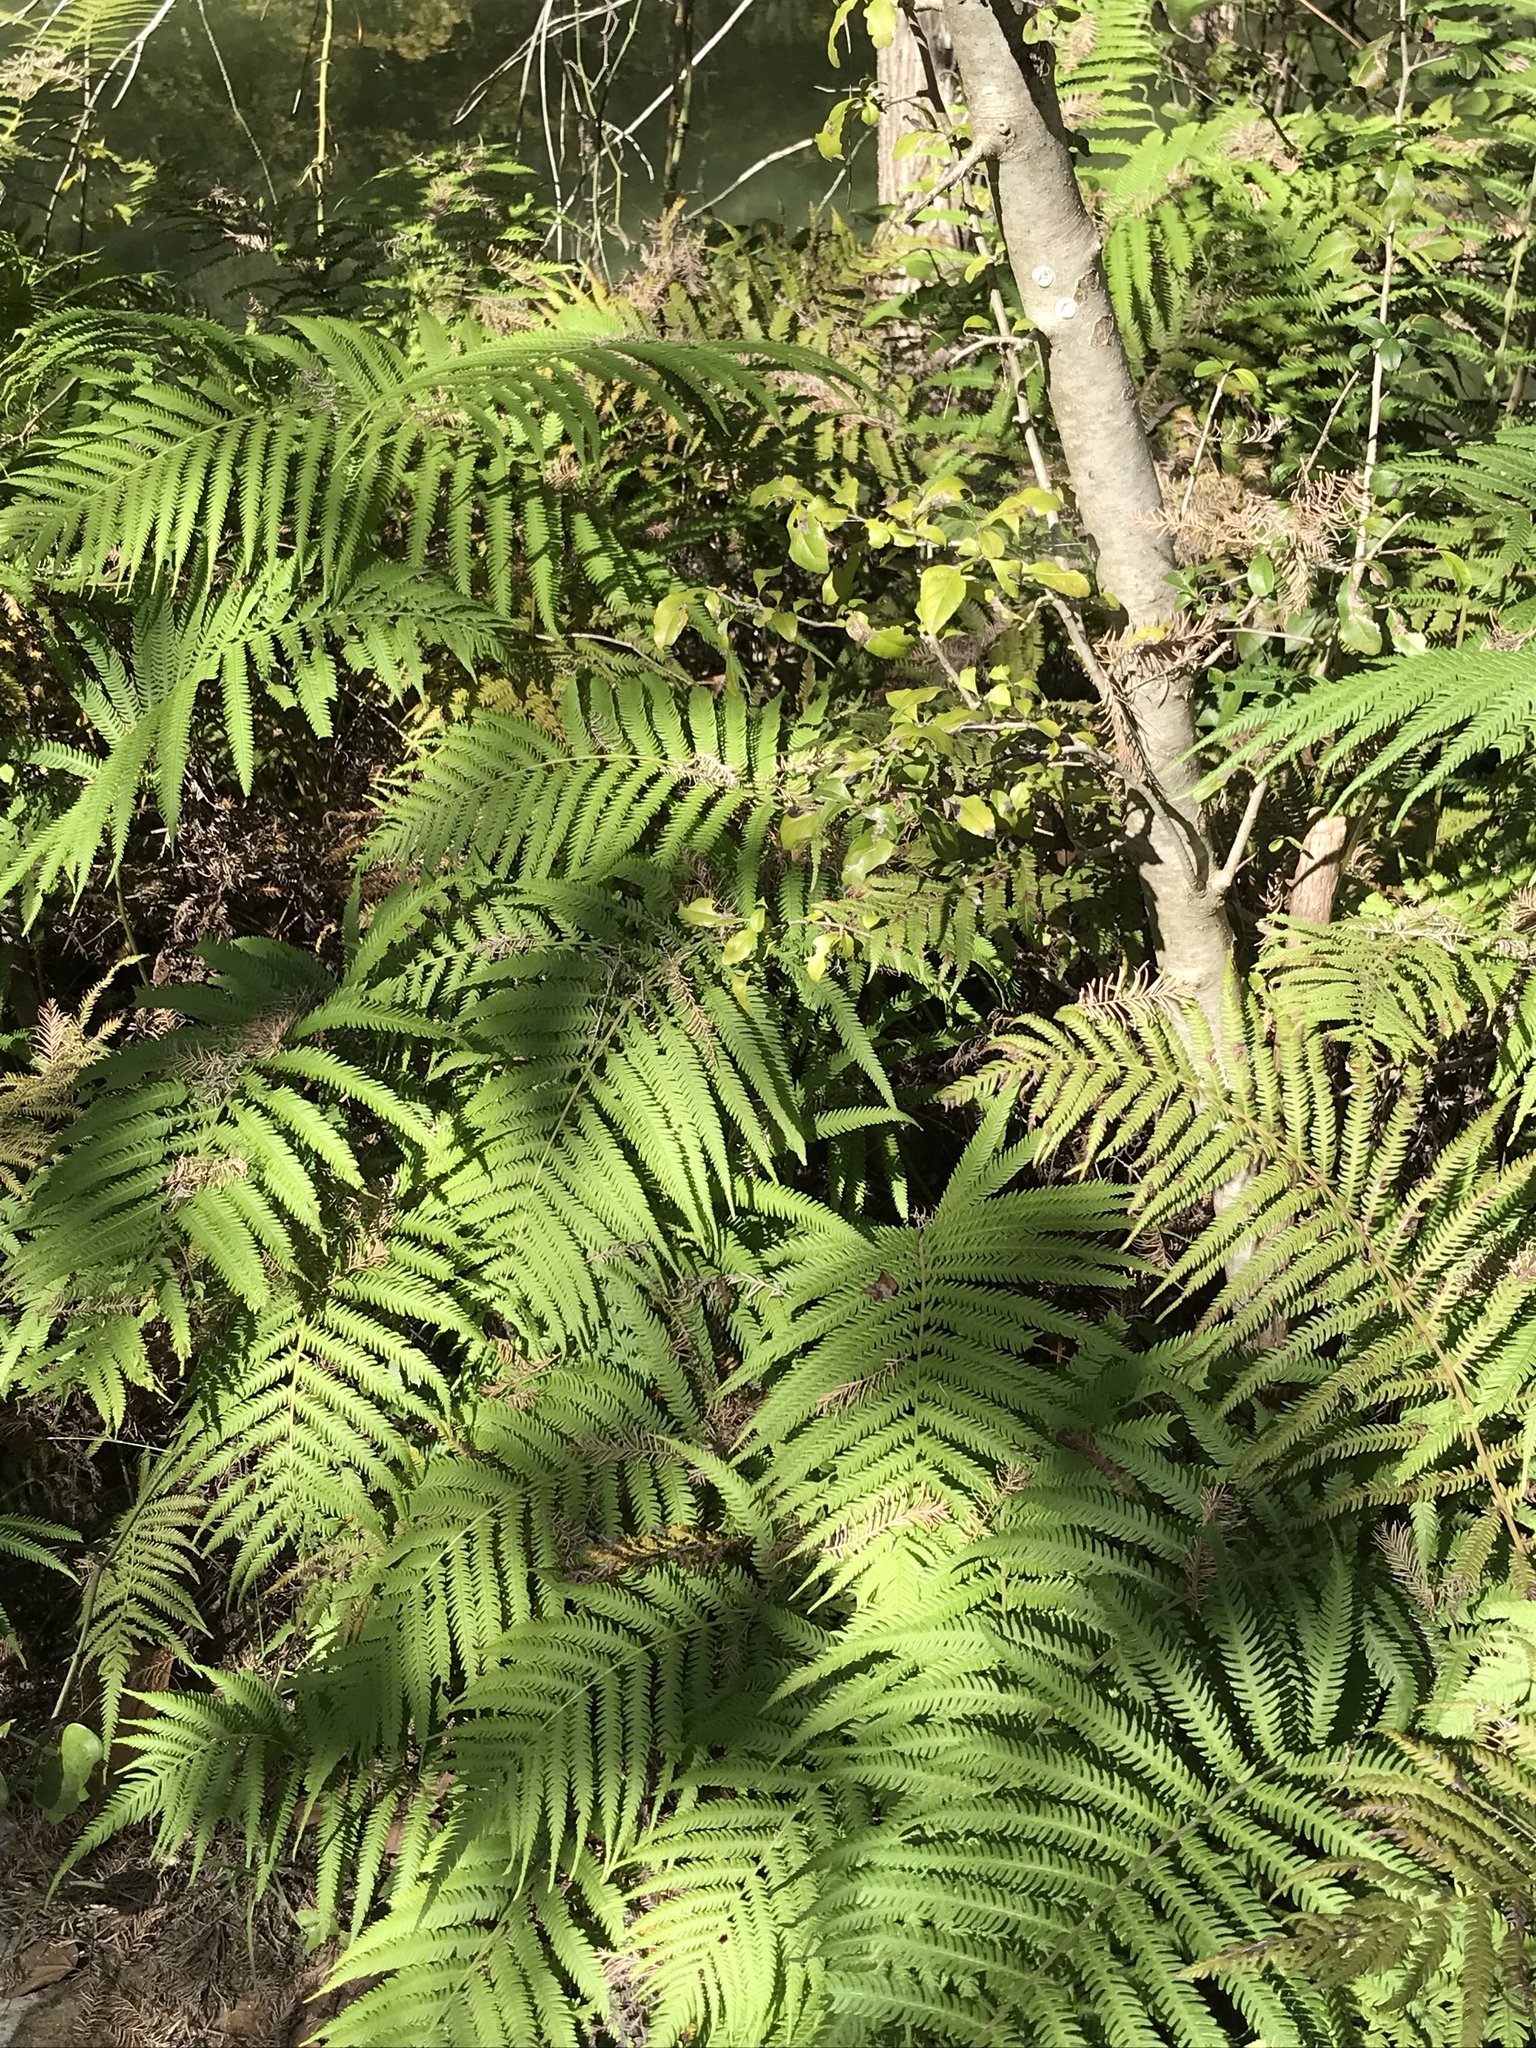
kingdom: Plantae
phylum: Tracheophyta
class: Polypodiopsida
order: Polypodiales
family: Thelypteridaceae
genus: Pelazoneuron
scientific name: Pelazoneuron ovatum
